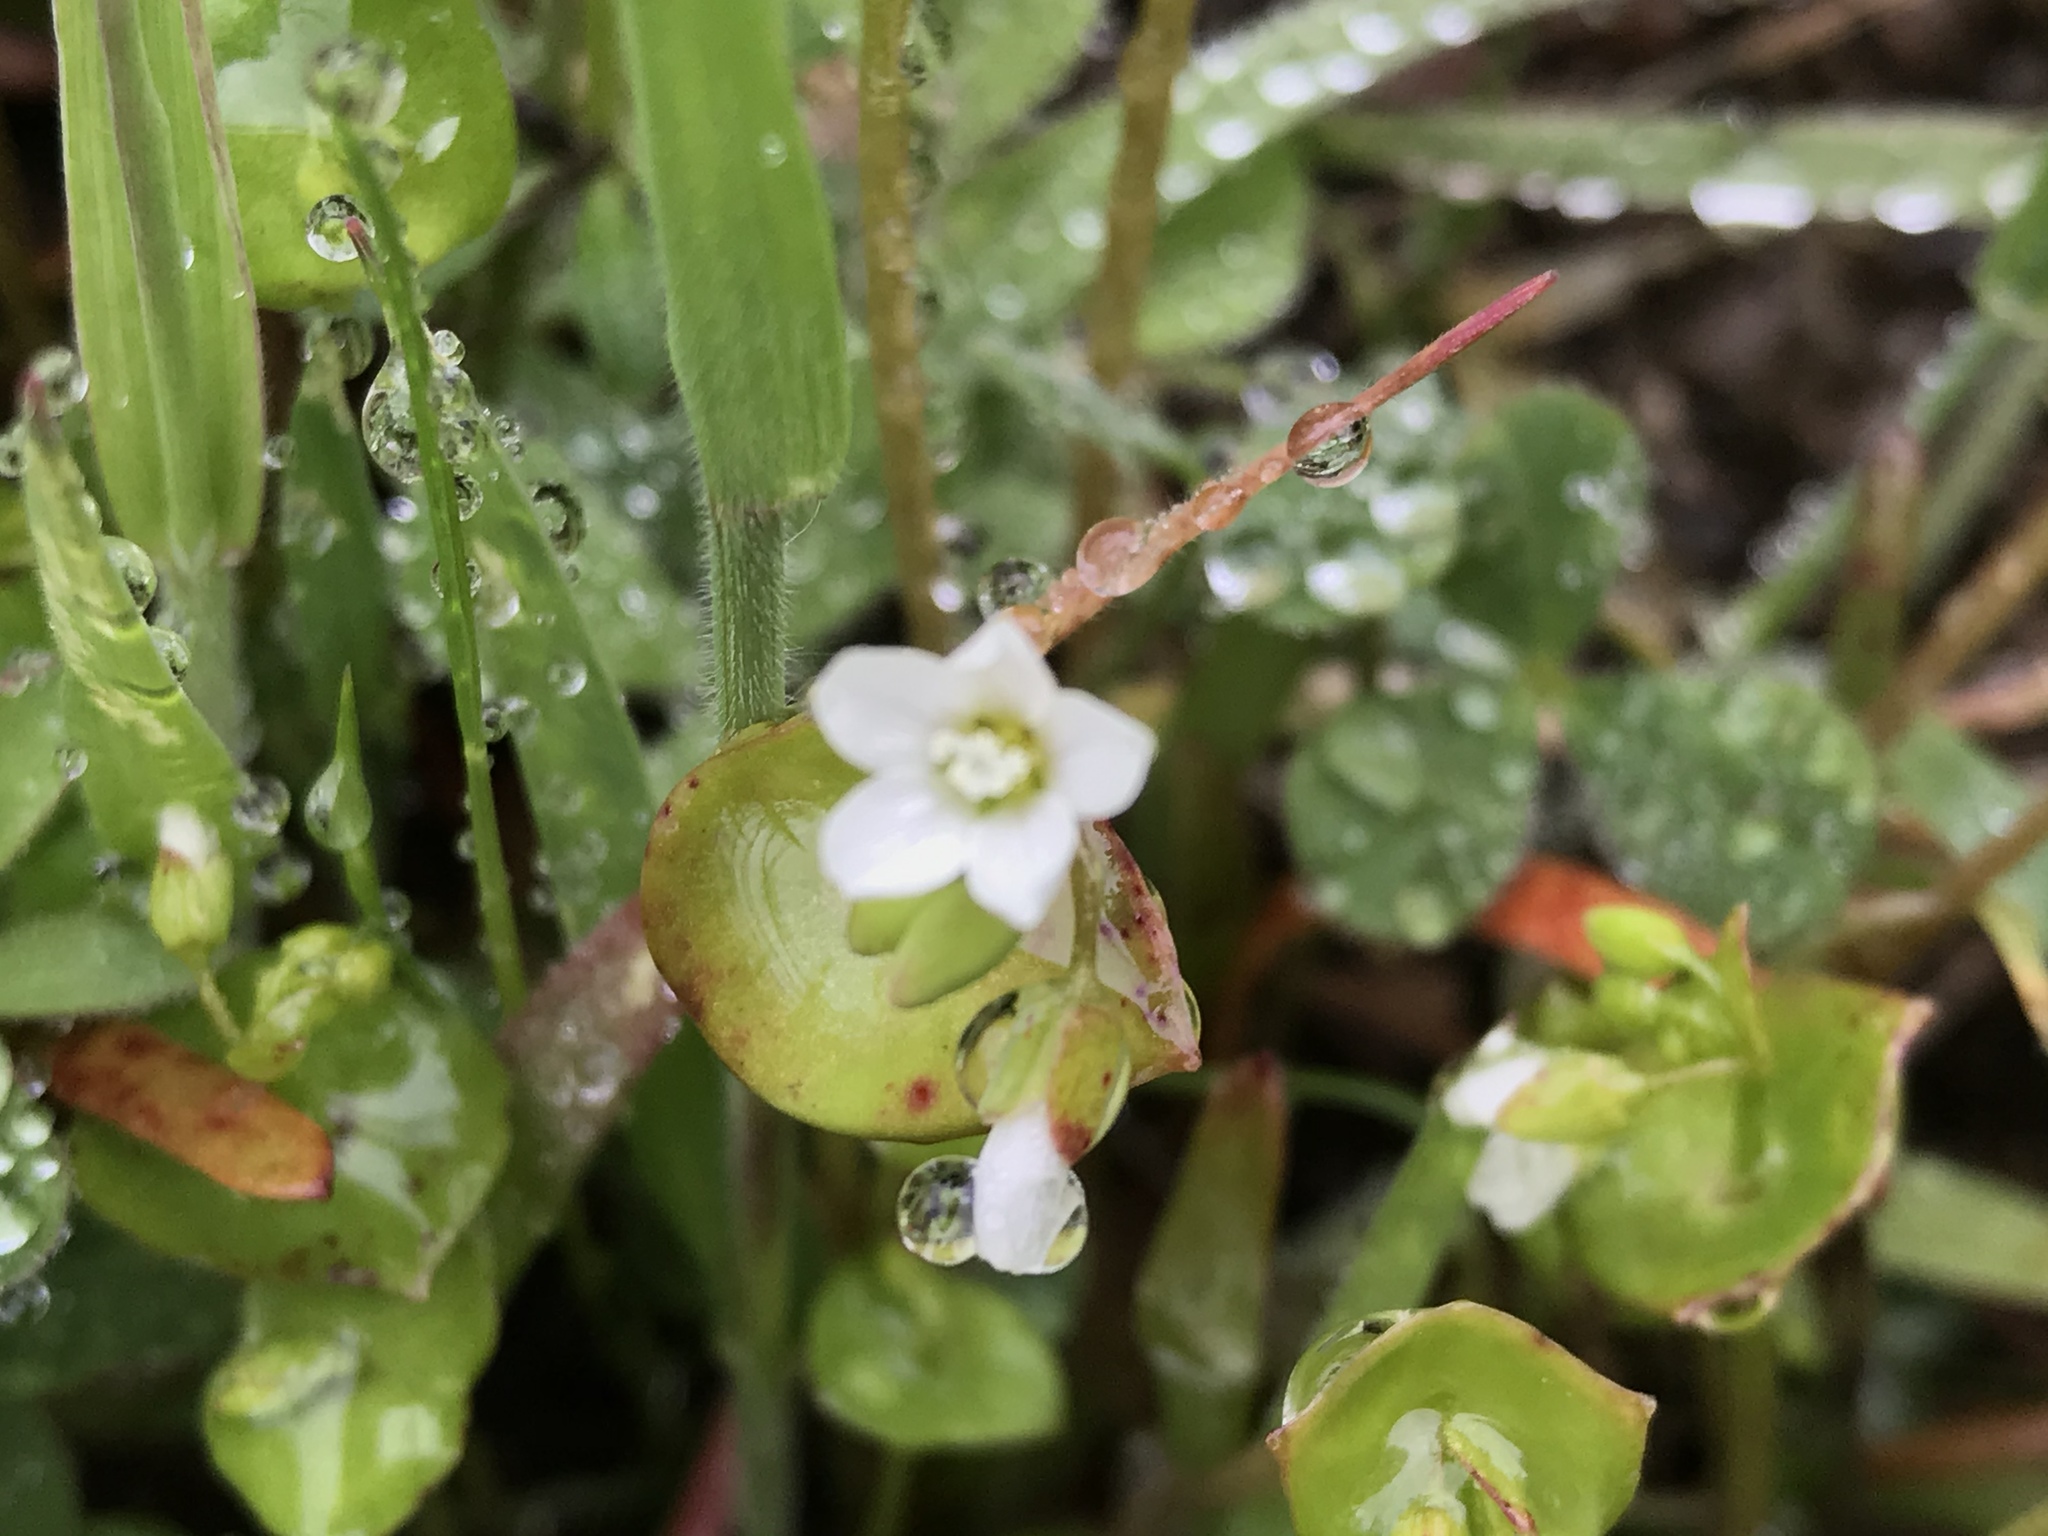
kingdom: Plantae
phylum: Tracheophyta
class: Magnoliopsida
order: Caryophyllales
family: Montiaceae
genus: Claytonia
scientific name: Claytonia perfoliata
